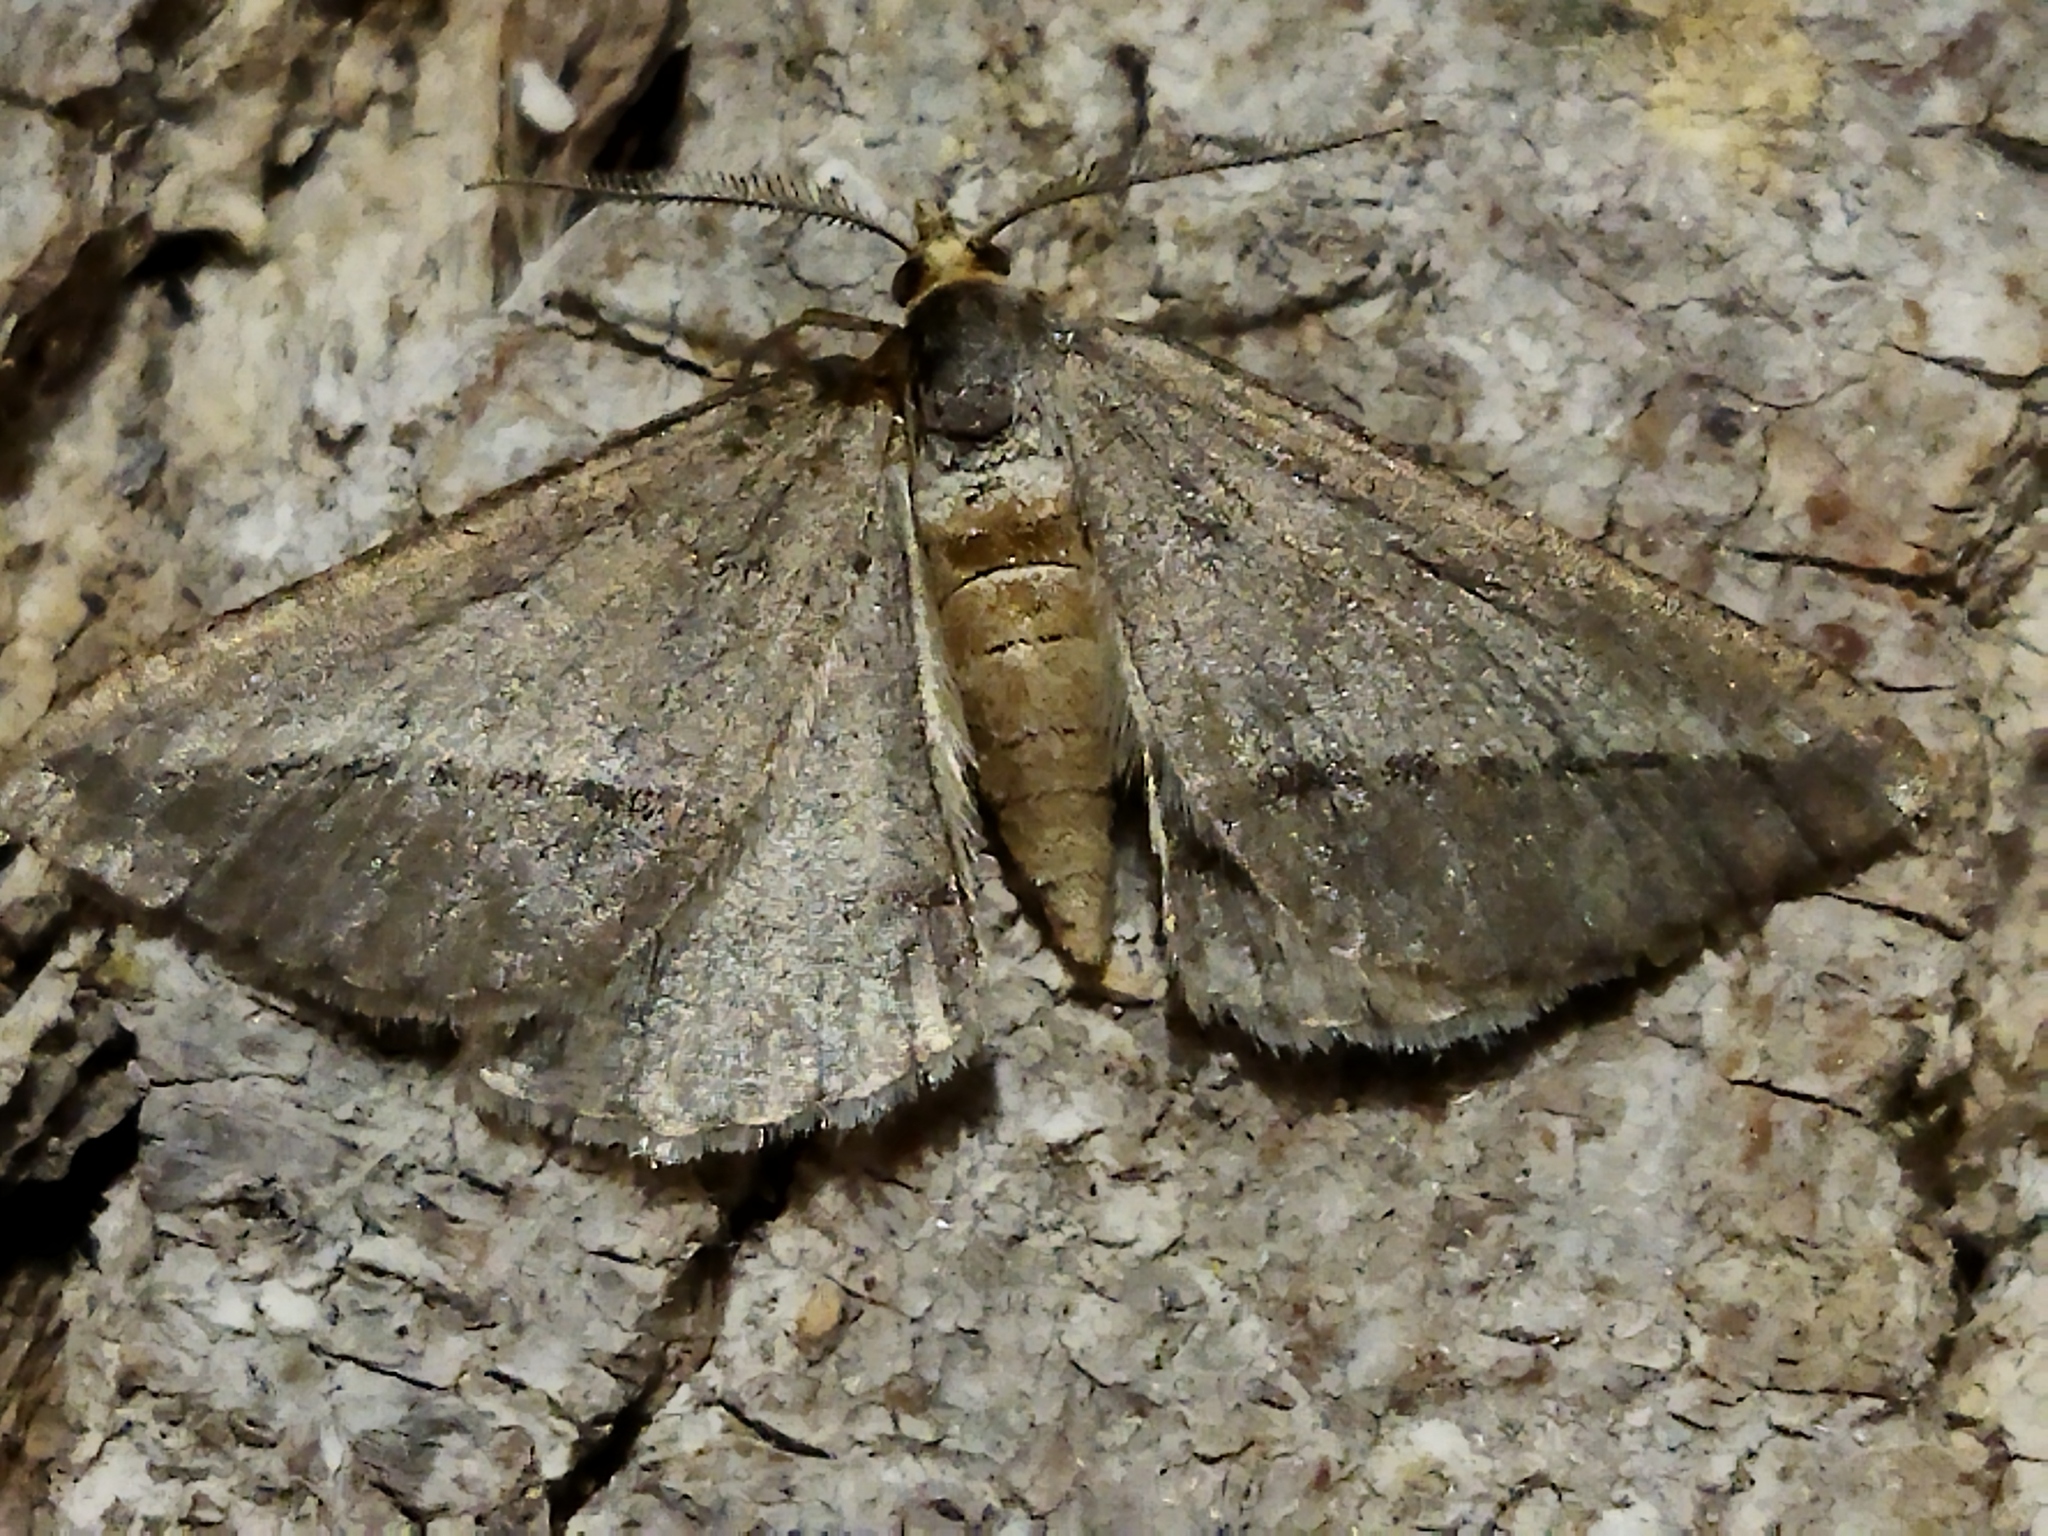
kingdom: Animalia
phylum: Arthropoda
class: Insecta
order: Lepidoptera
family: Geometridae
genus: Tephrina
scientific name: Tephrina arenacearia
